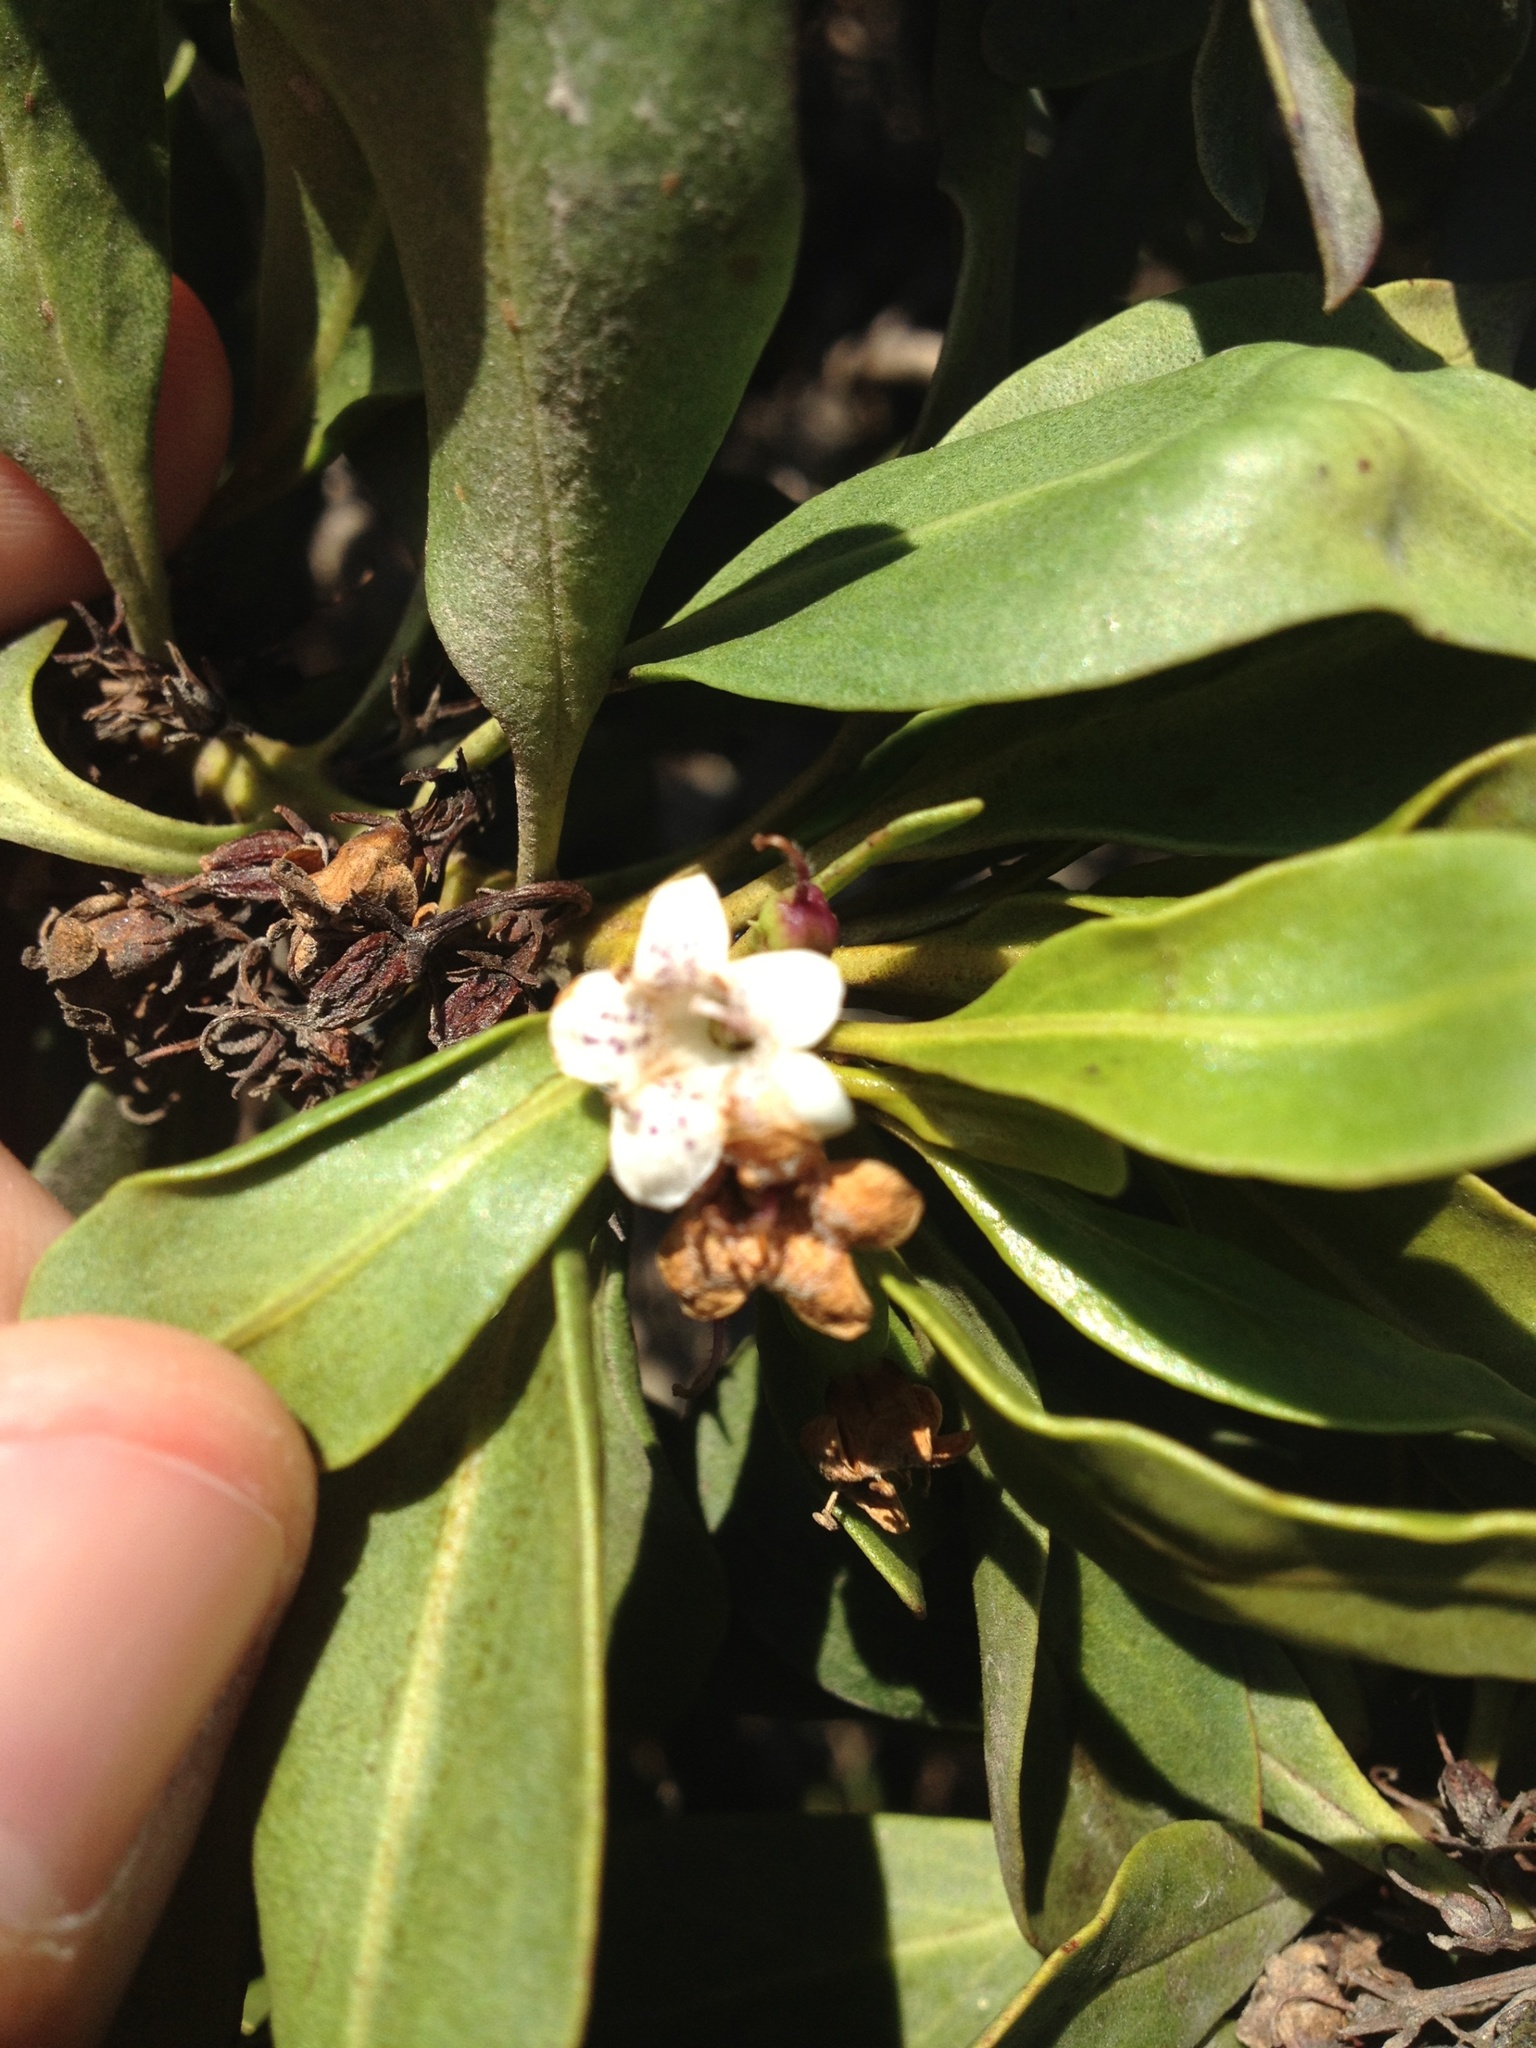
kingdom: Plantae
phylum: Tracheophyta
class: Magnoliopsida
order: Lamiales
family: Scrophulariaceae
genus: Myoporum
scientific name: Myoporum laetum
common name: Ngaio tree
